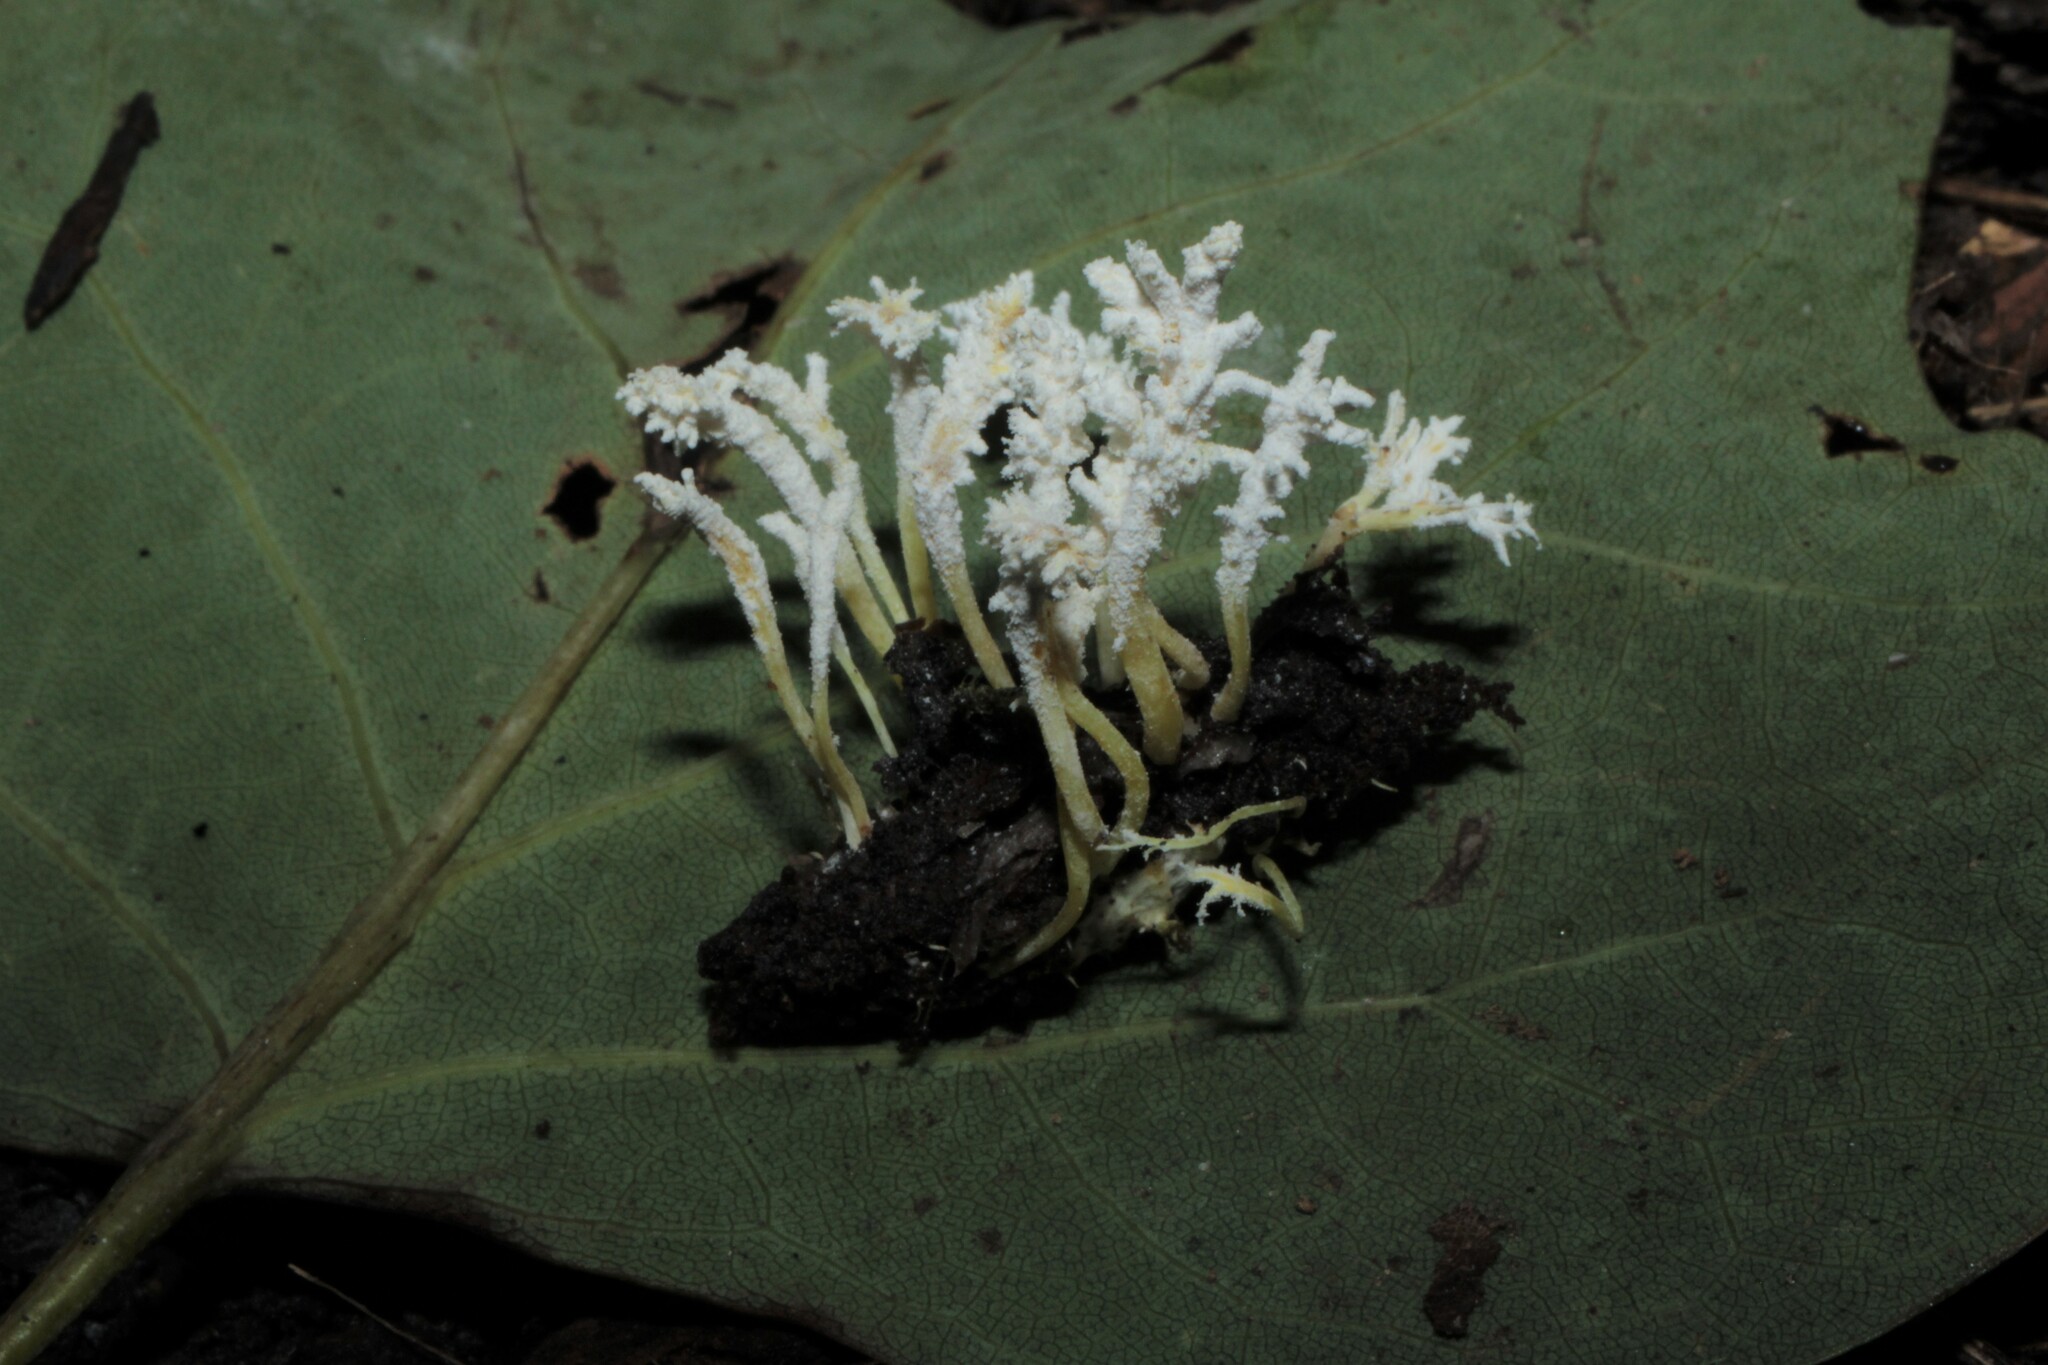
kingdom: Fungi
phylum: Ascomycota
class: Sordariomycetes
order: Hypocreales
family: Cordycipitaceae
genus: Cordyceps
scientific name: Cordyceps tenuipes
